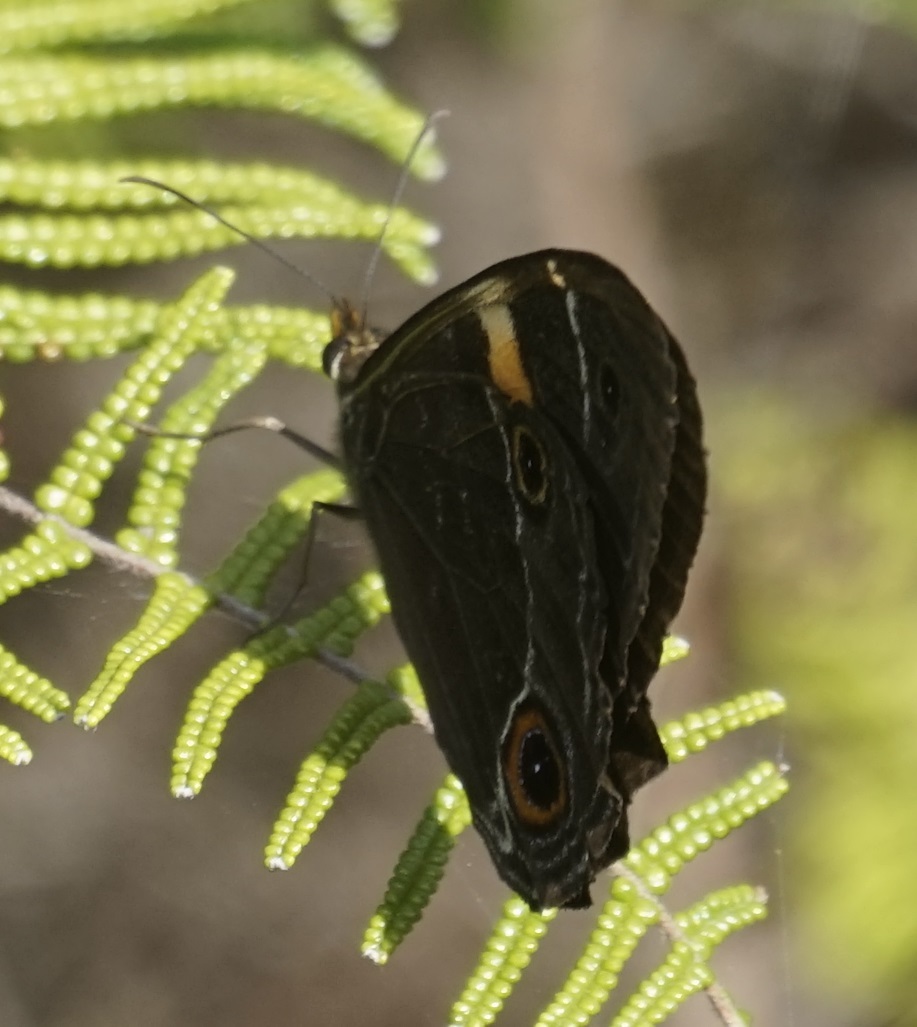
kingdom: Animalia
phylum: Arthropoda
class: Insecta
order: Lepidoptera
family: Nymphalidae
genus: Tisiphone
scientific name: Tisiphone abeona
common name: Swordgrass brown
